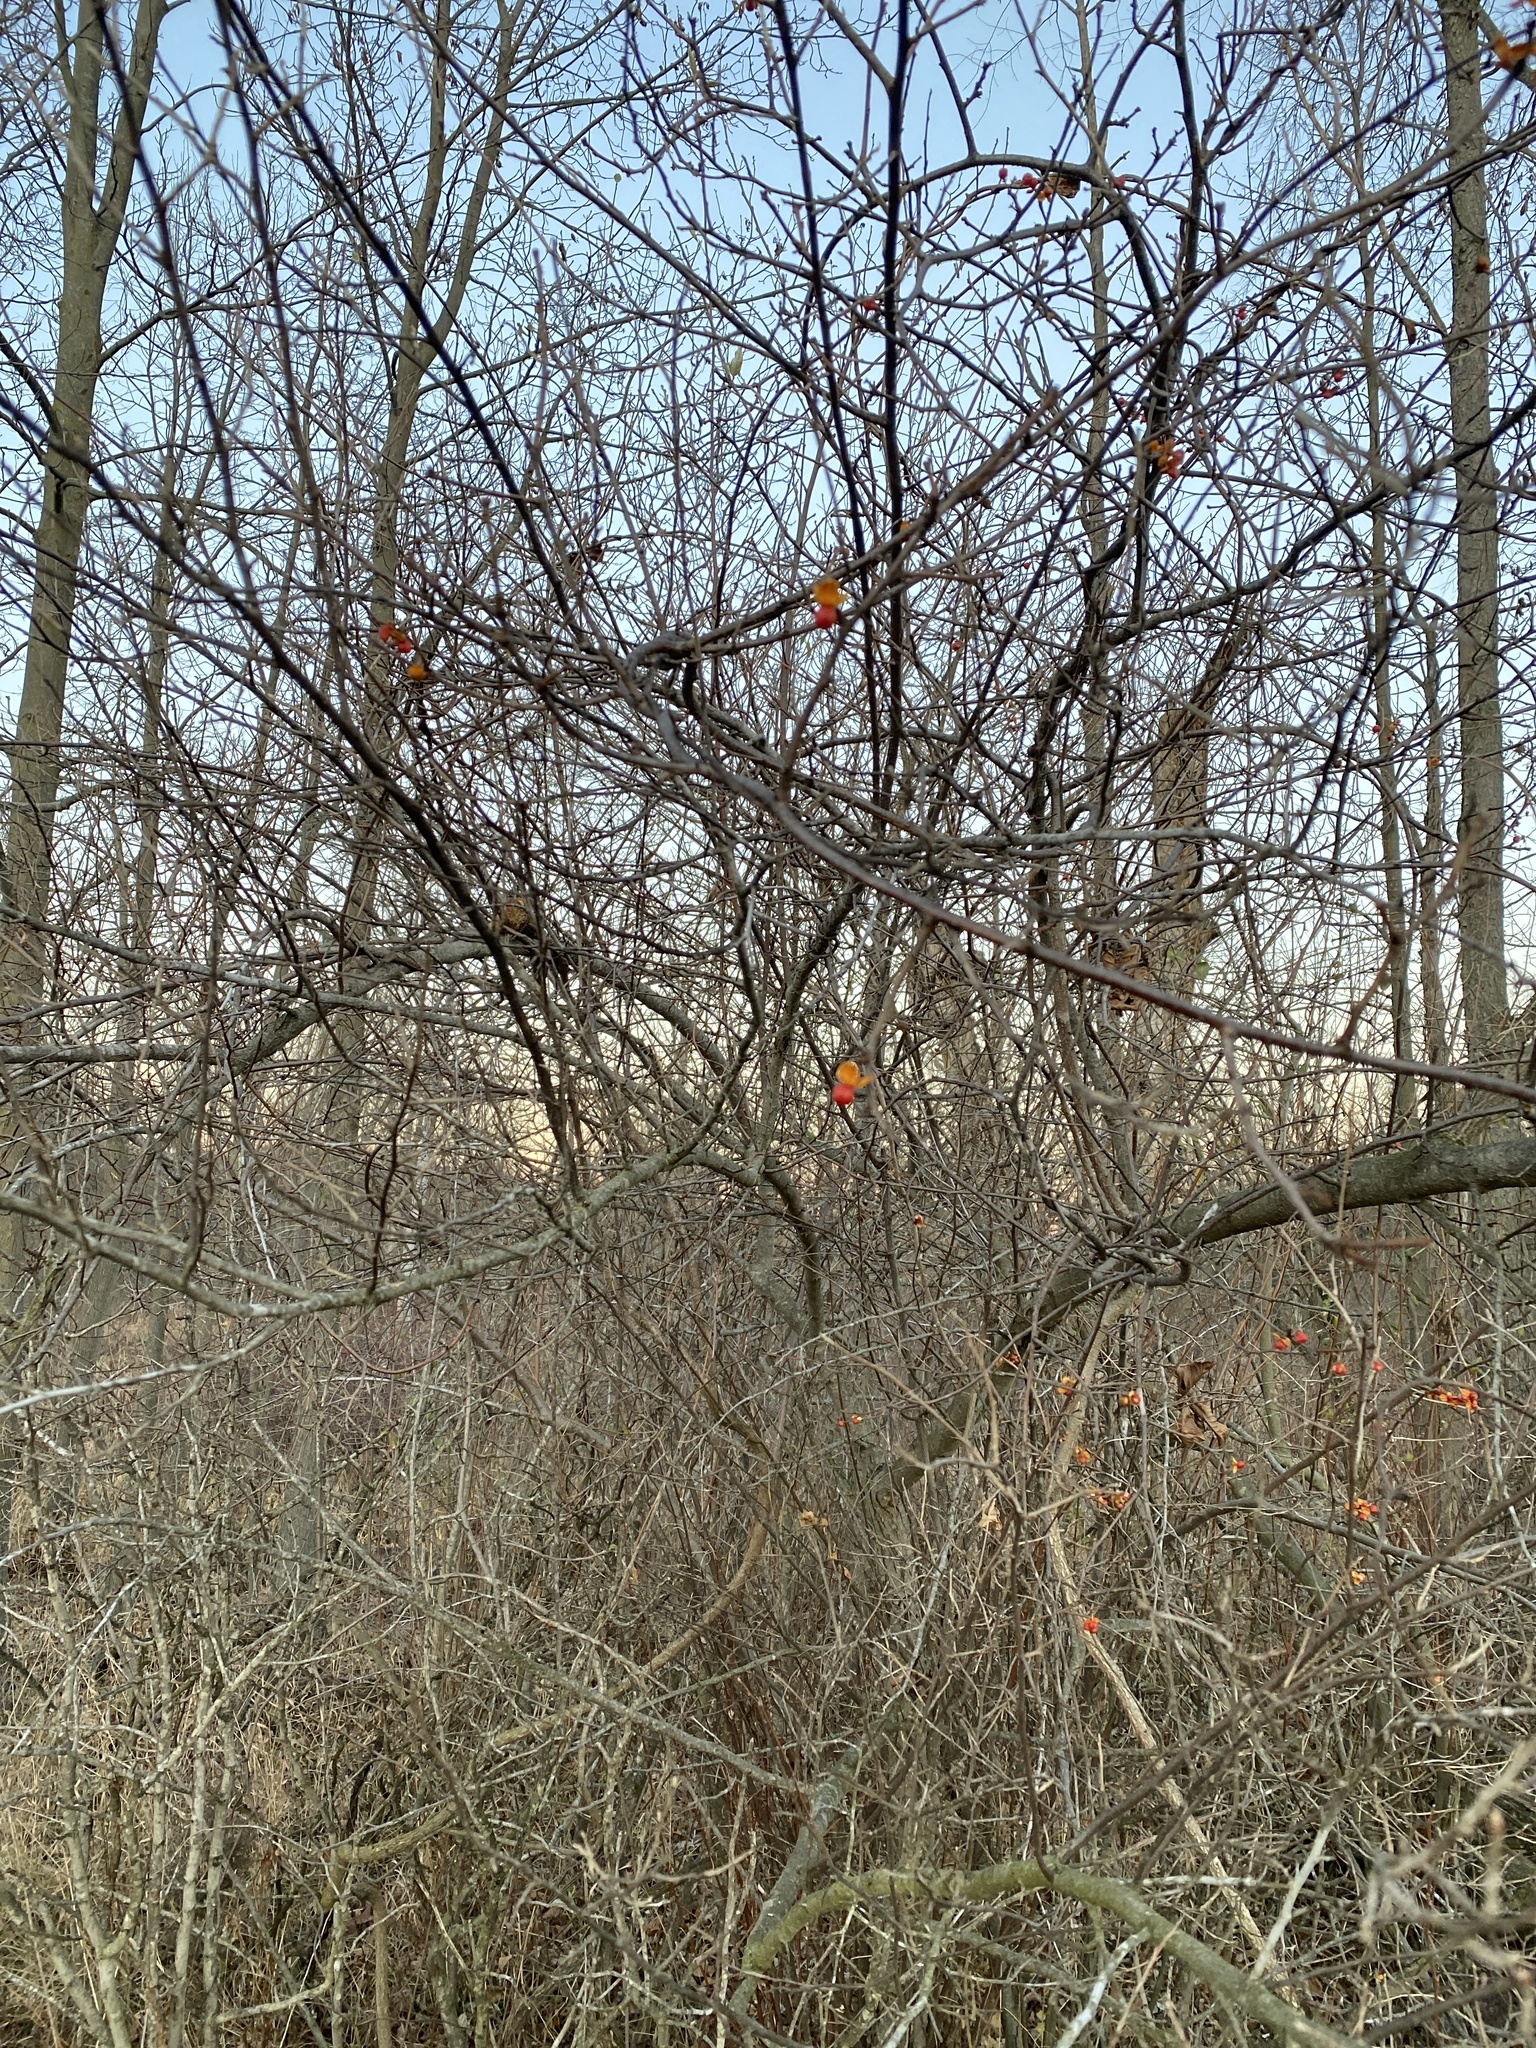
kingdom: Plantae
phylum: Tracheophyta
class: Magnoliopsida
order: Celastrales
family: Celastraceae
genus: Celastrus
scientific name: Celastrus orbiculatus
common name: Oriental bittersweet
